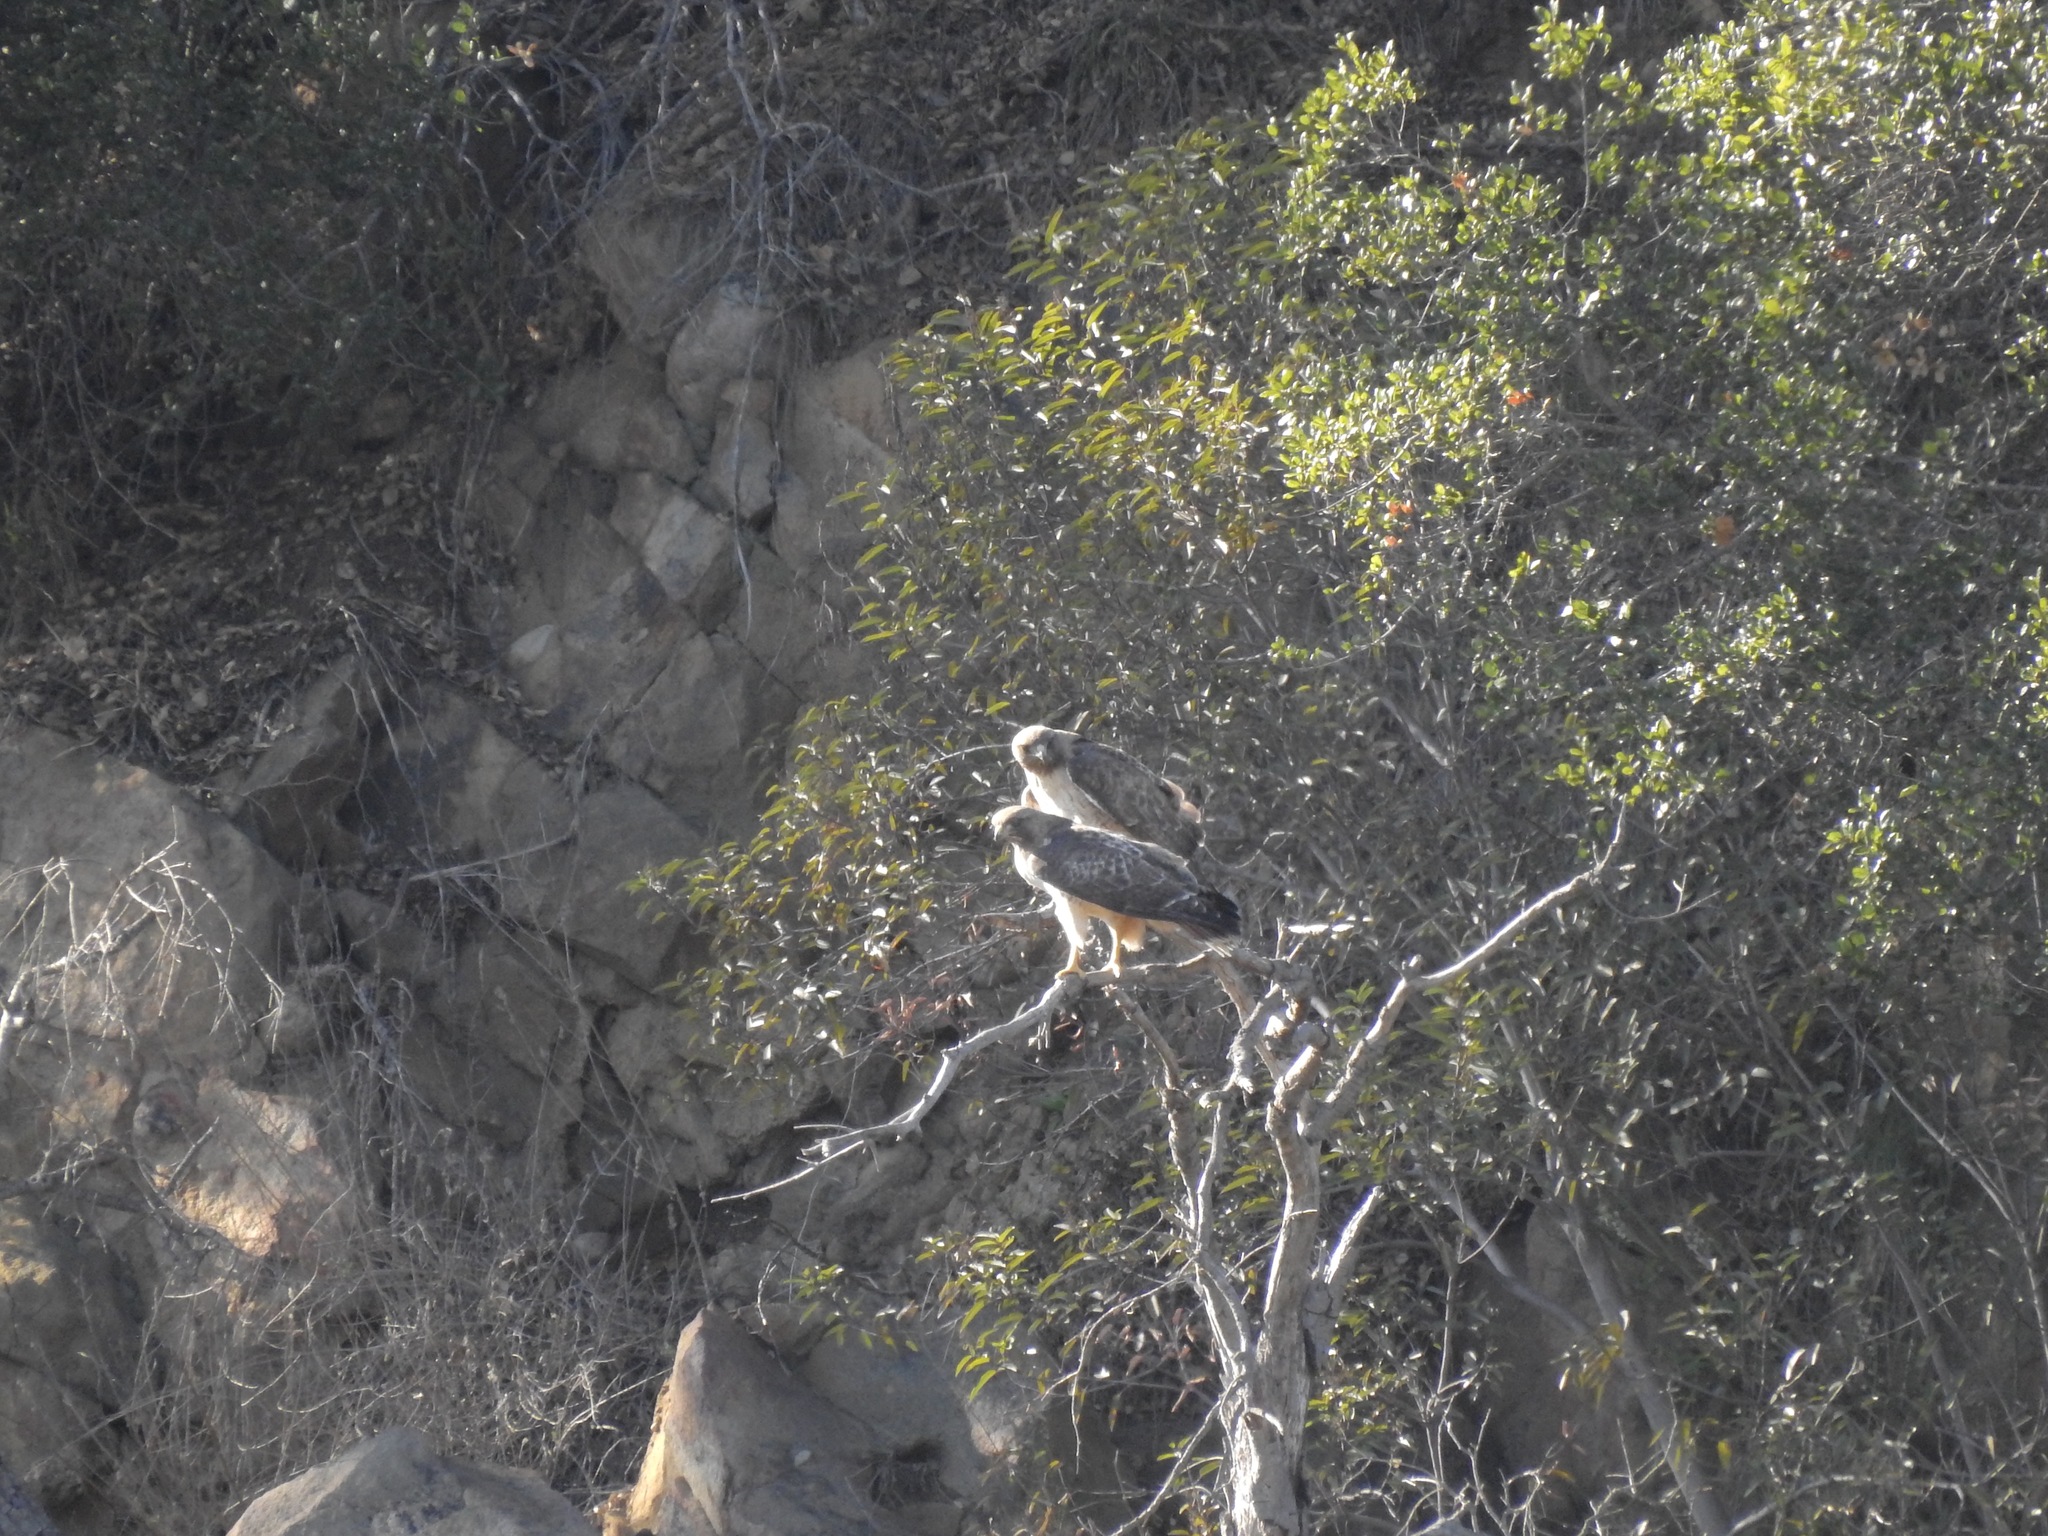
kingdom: Animalia
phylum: Chordata
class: Aves
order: Accipitriformes
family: Accipitridae
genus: Buteo
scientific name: Buteo jamaicensis
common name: Red-tailed hawk
